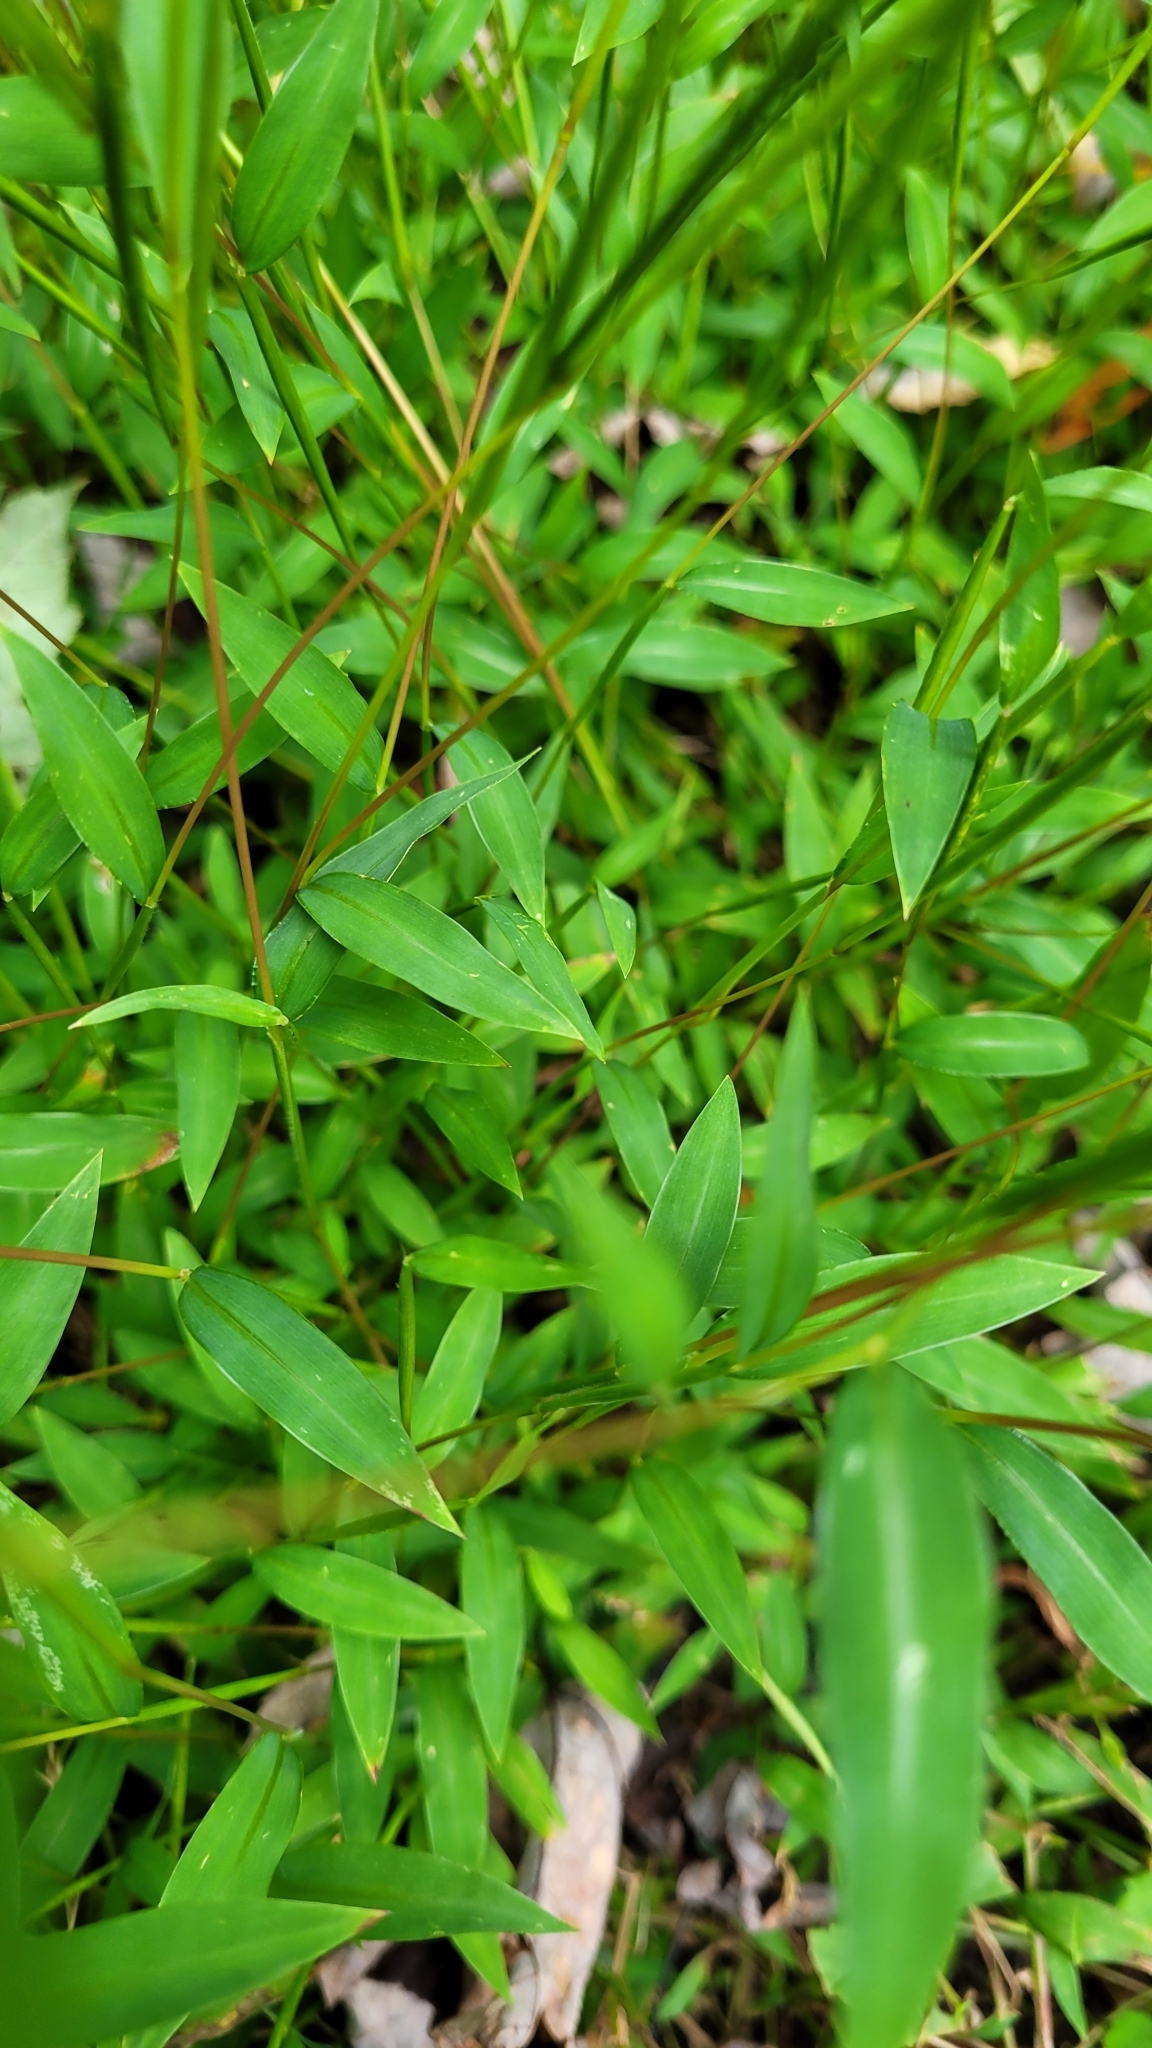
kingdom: Plantae
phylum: Tracheophyta
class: Liliopsida
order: Poales
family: Poaceae
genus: Microstegium
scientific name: Microstegium vimineum
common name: Japanese stiltgrass
